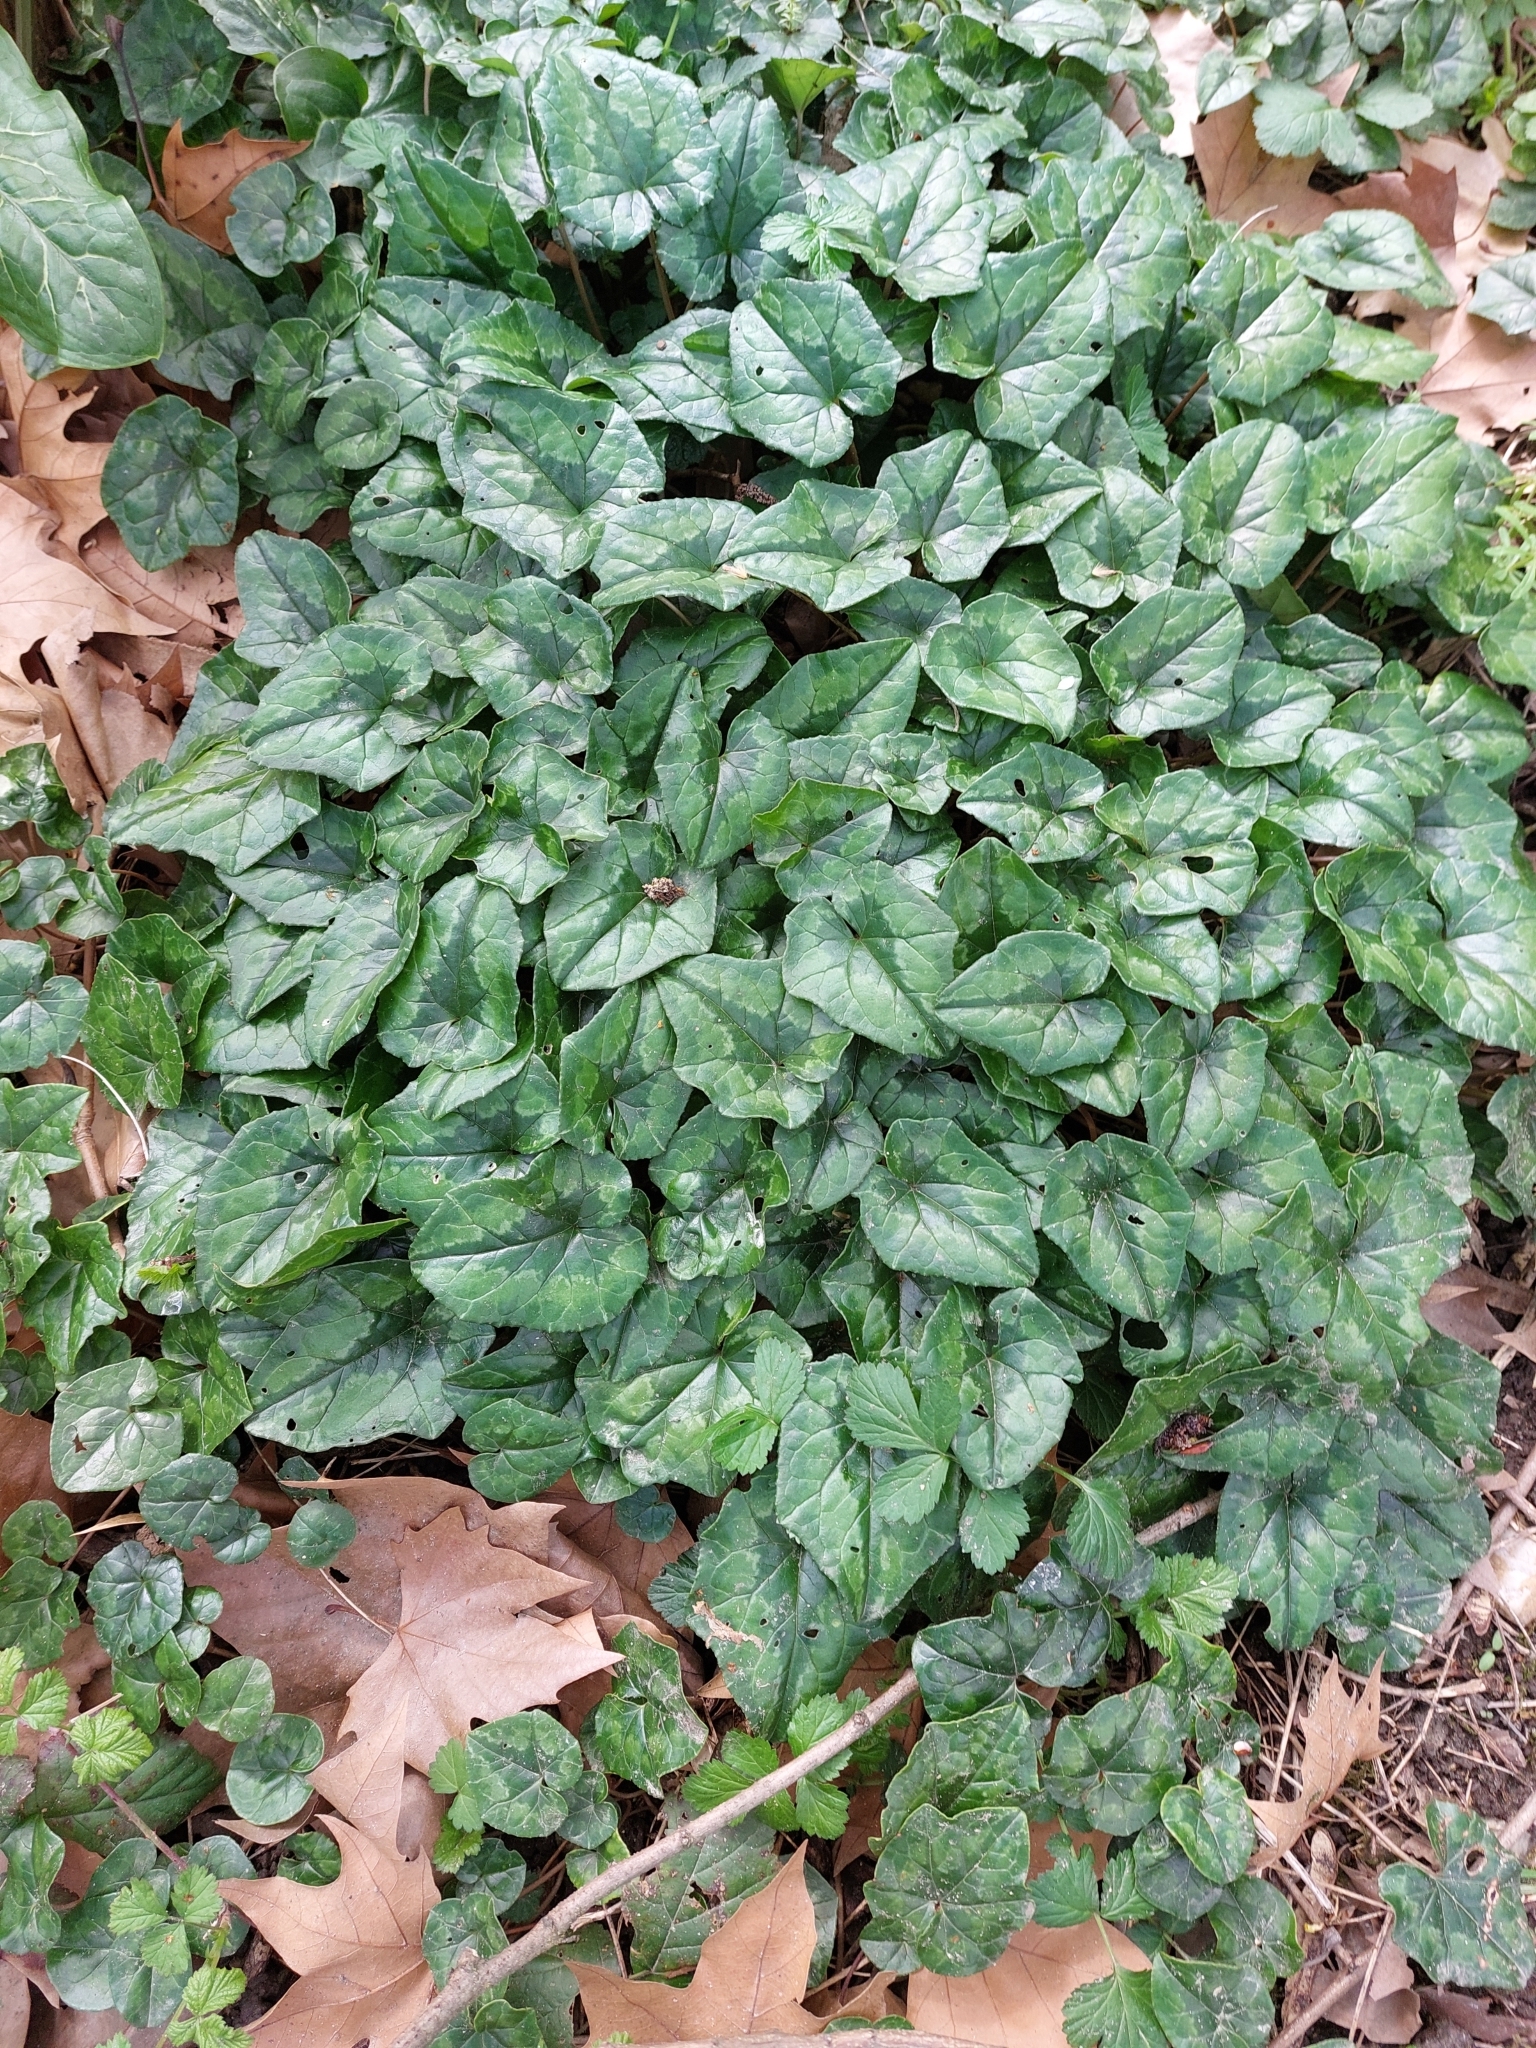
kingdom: Plantae
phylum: Tracheophyta
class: Magnoliopsida
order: Ericales
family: Primulaceae
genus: Cyclamen
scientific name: Cyclamen hederifolium
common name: Sowbread
